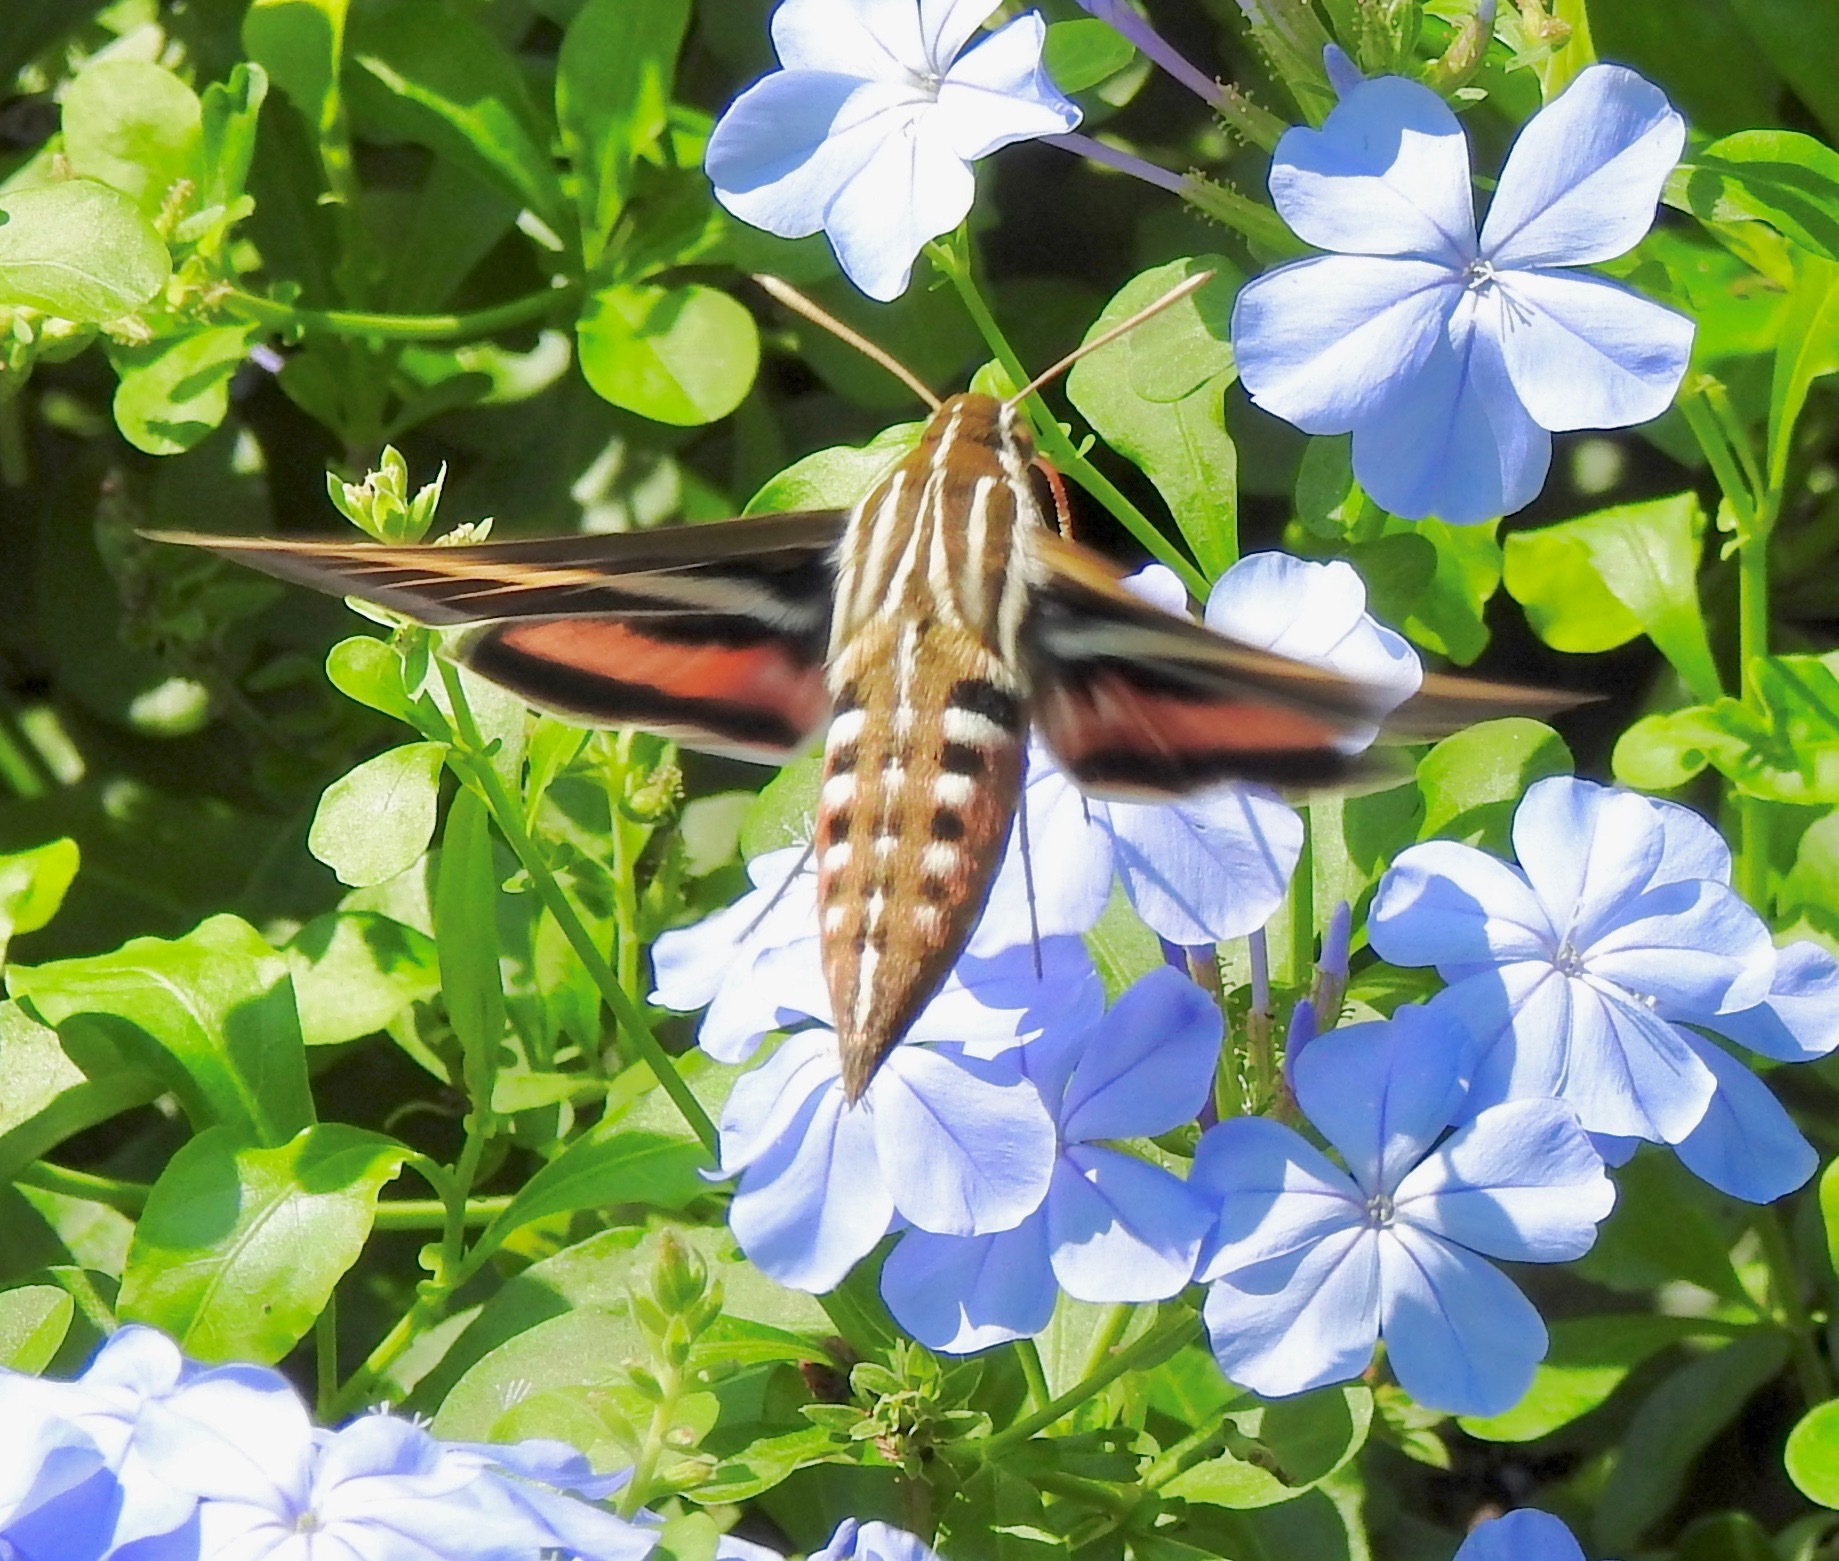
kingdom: Animalia
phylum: Arthropoda
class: Insecta
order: Lepidoptera
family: Sphingidae
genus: Hyles
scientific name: Hyles lineata
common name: White-lined sphinx
